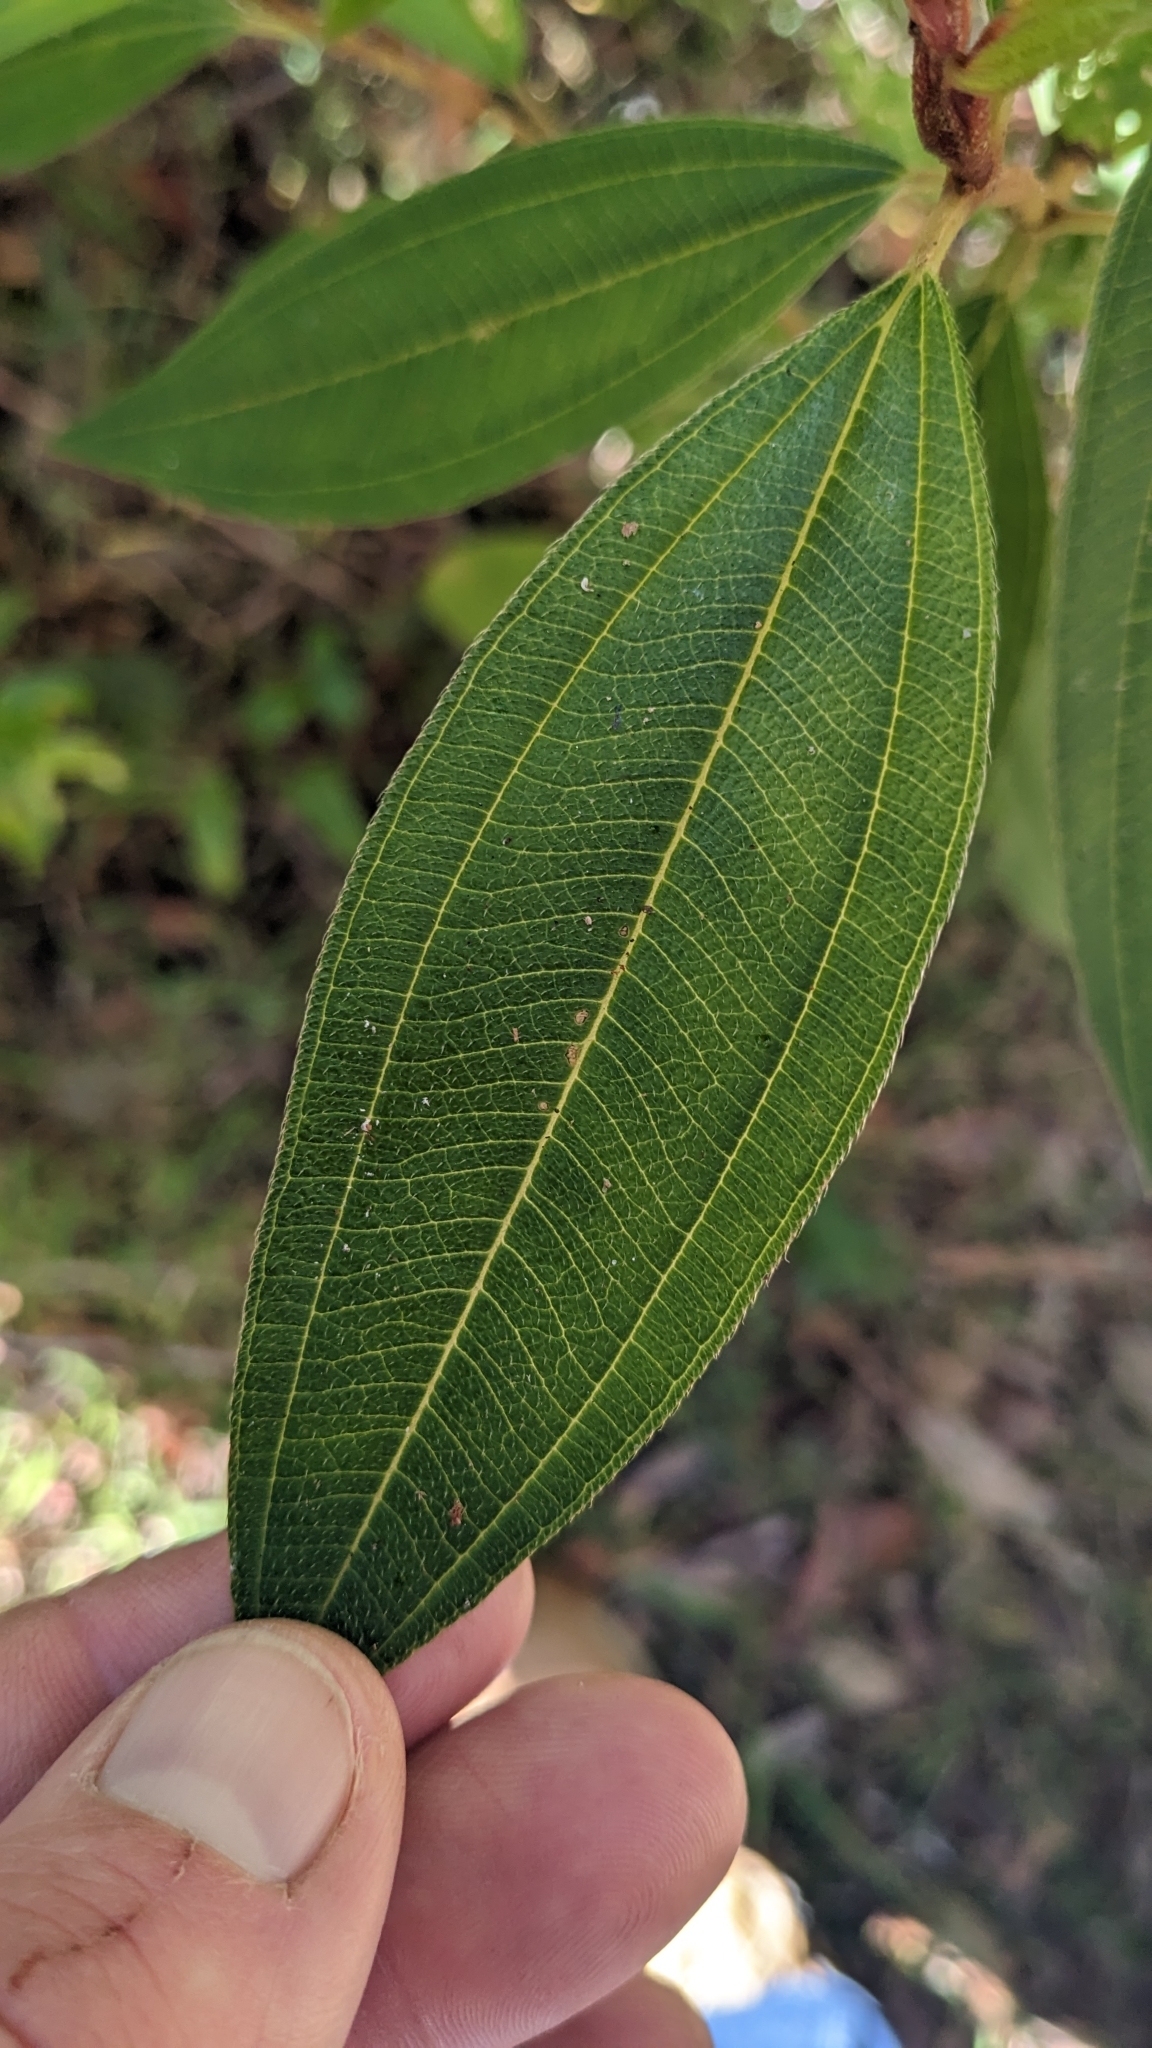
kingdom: Plantae
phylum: Tracheophyta
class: Magnoliopsida
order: Myrtales
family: Melastomataceae
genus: Melastoma
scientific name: Melastoma malabathricum
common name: Indian-rhododendron
